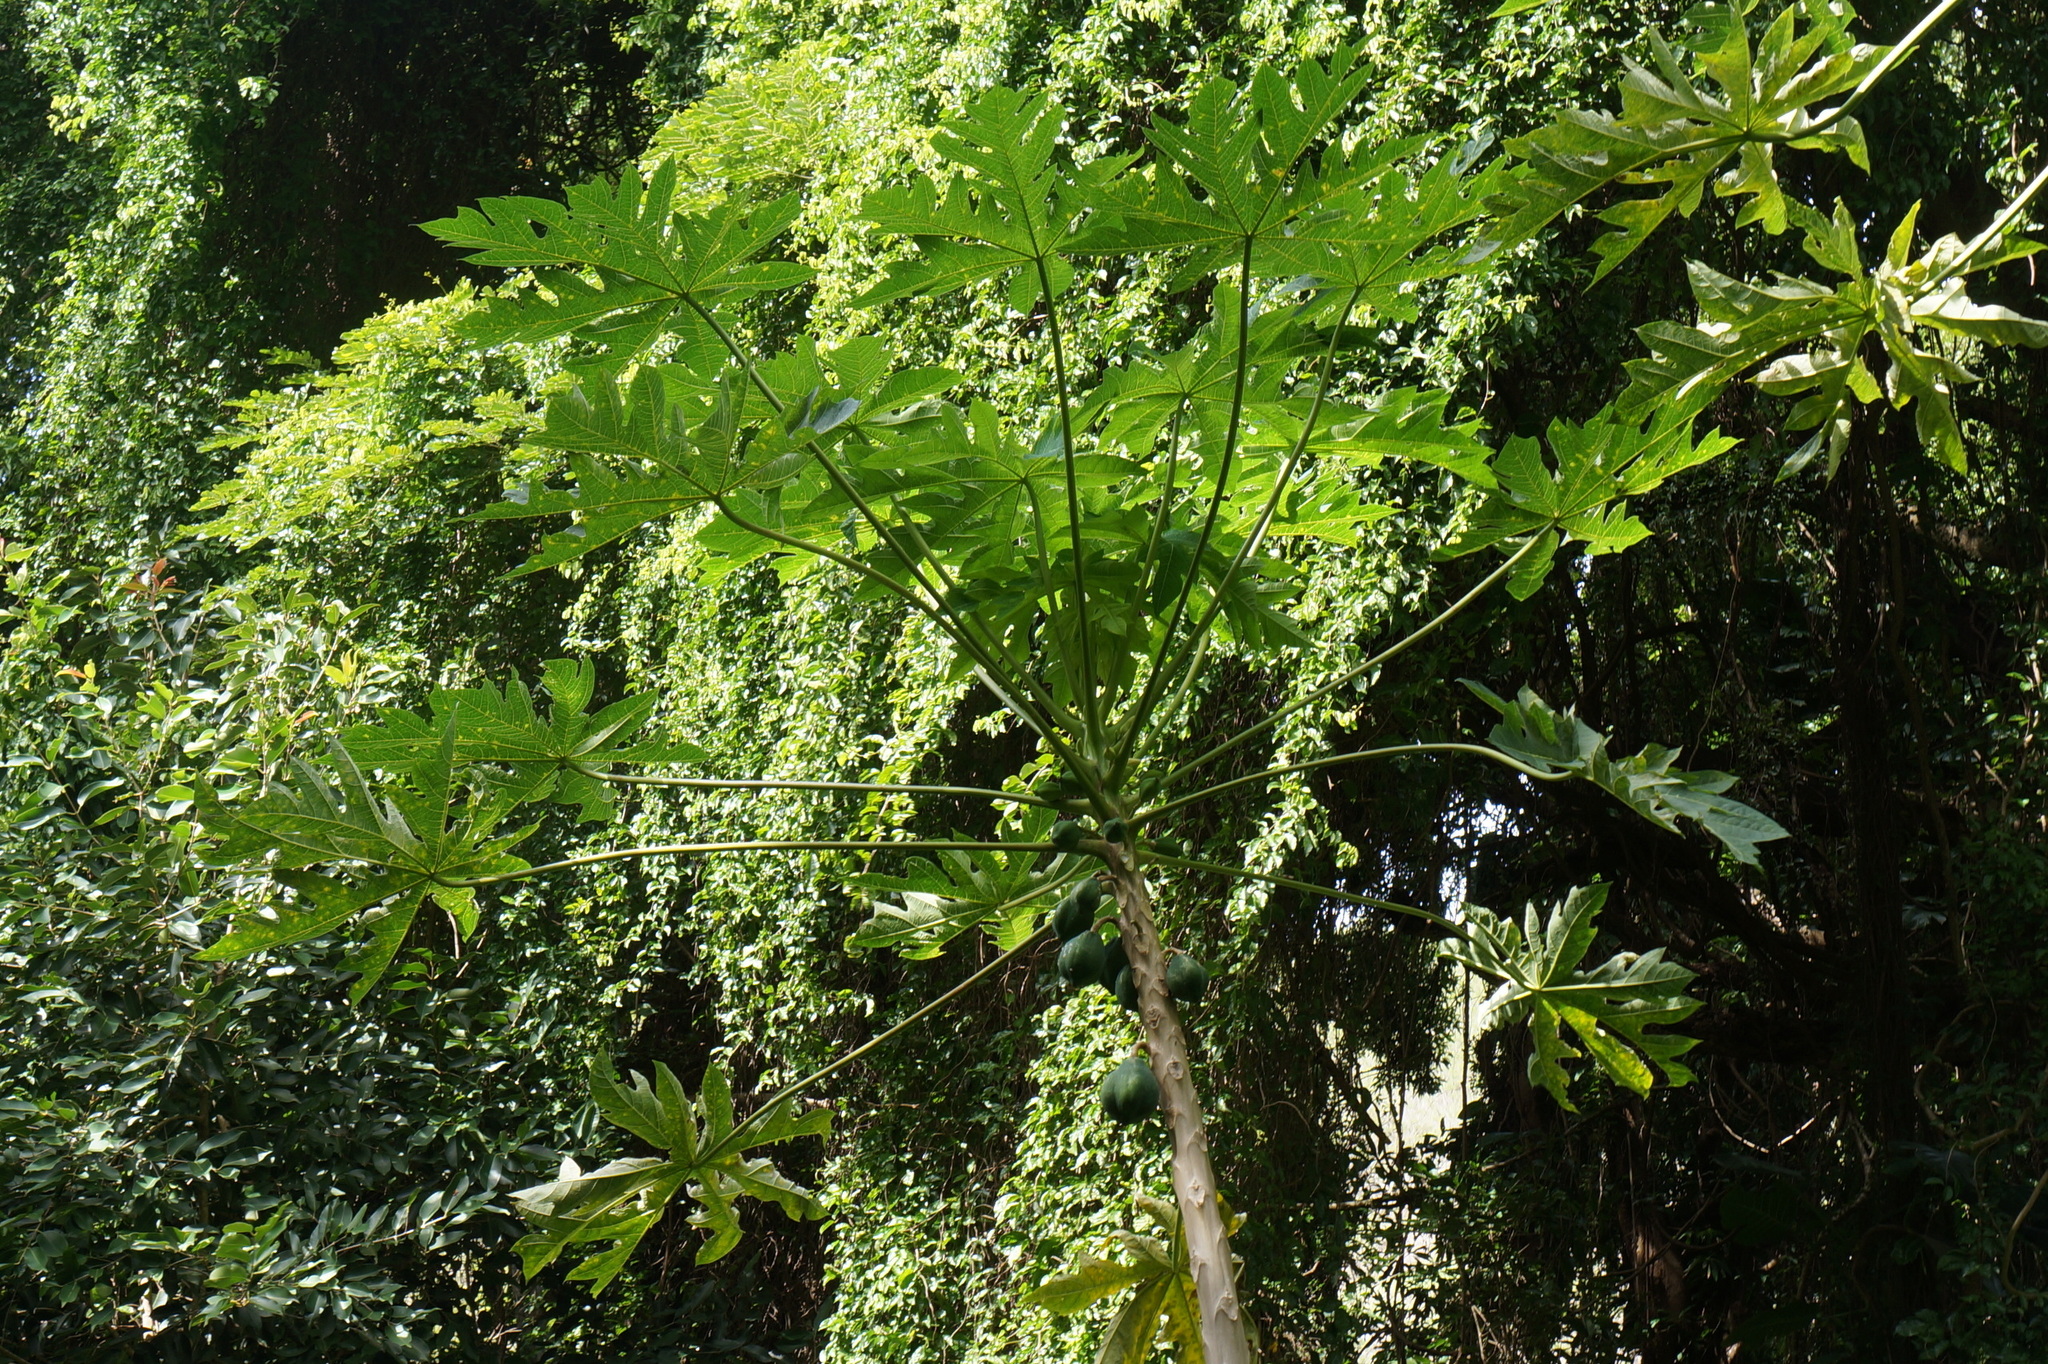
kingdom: Plantae
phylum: Tracheophyta
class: Magnoliopsida
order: Brassicales
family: Caricaceae
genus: Carica
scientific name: Carica papaya
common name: Papaya
